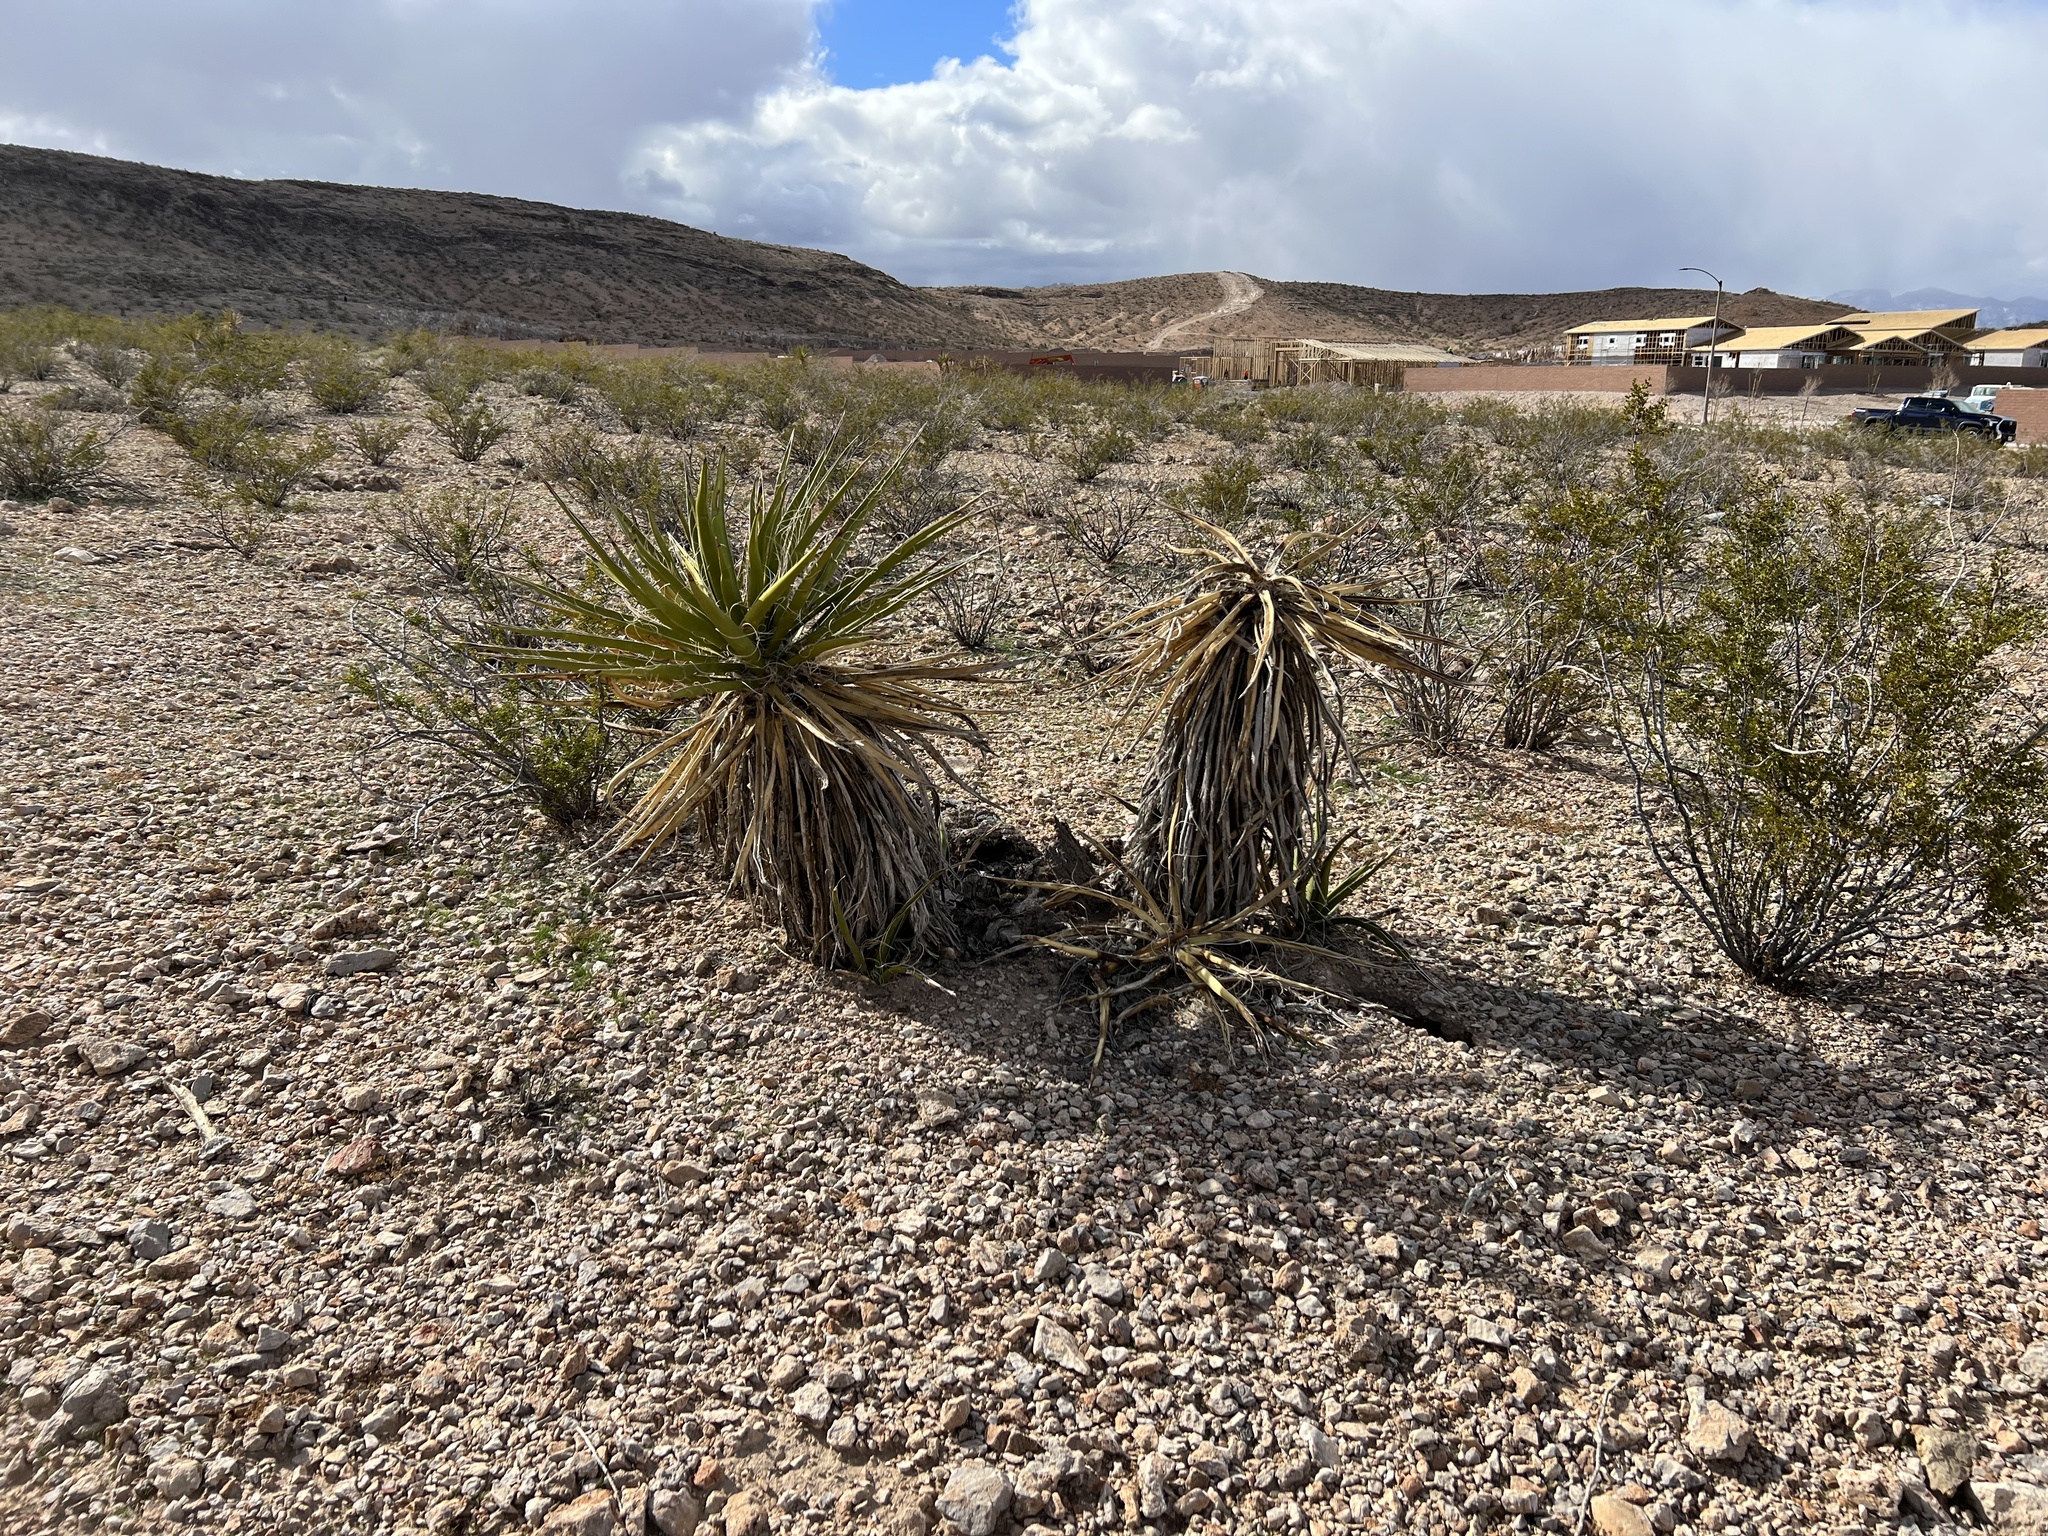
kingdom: Plantae
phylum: Tracheophyta
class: Liliopsida
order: Asparagales
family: Asparagaceae
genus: Yucca
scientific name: Yucca schidigera
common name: Mojave yucca
